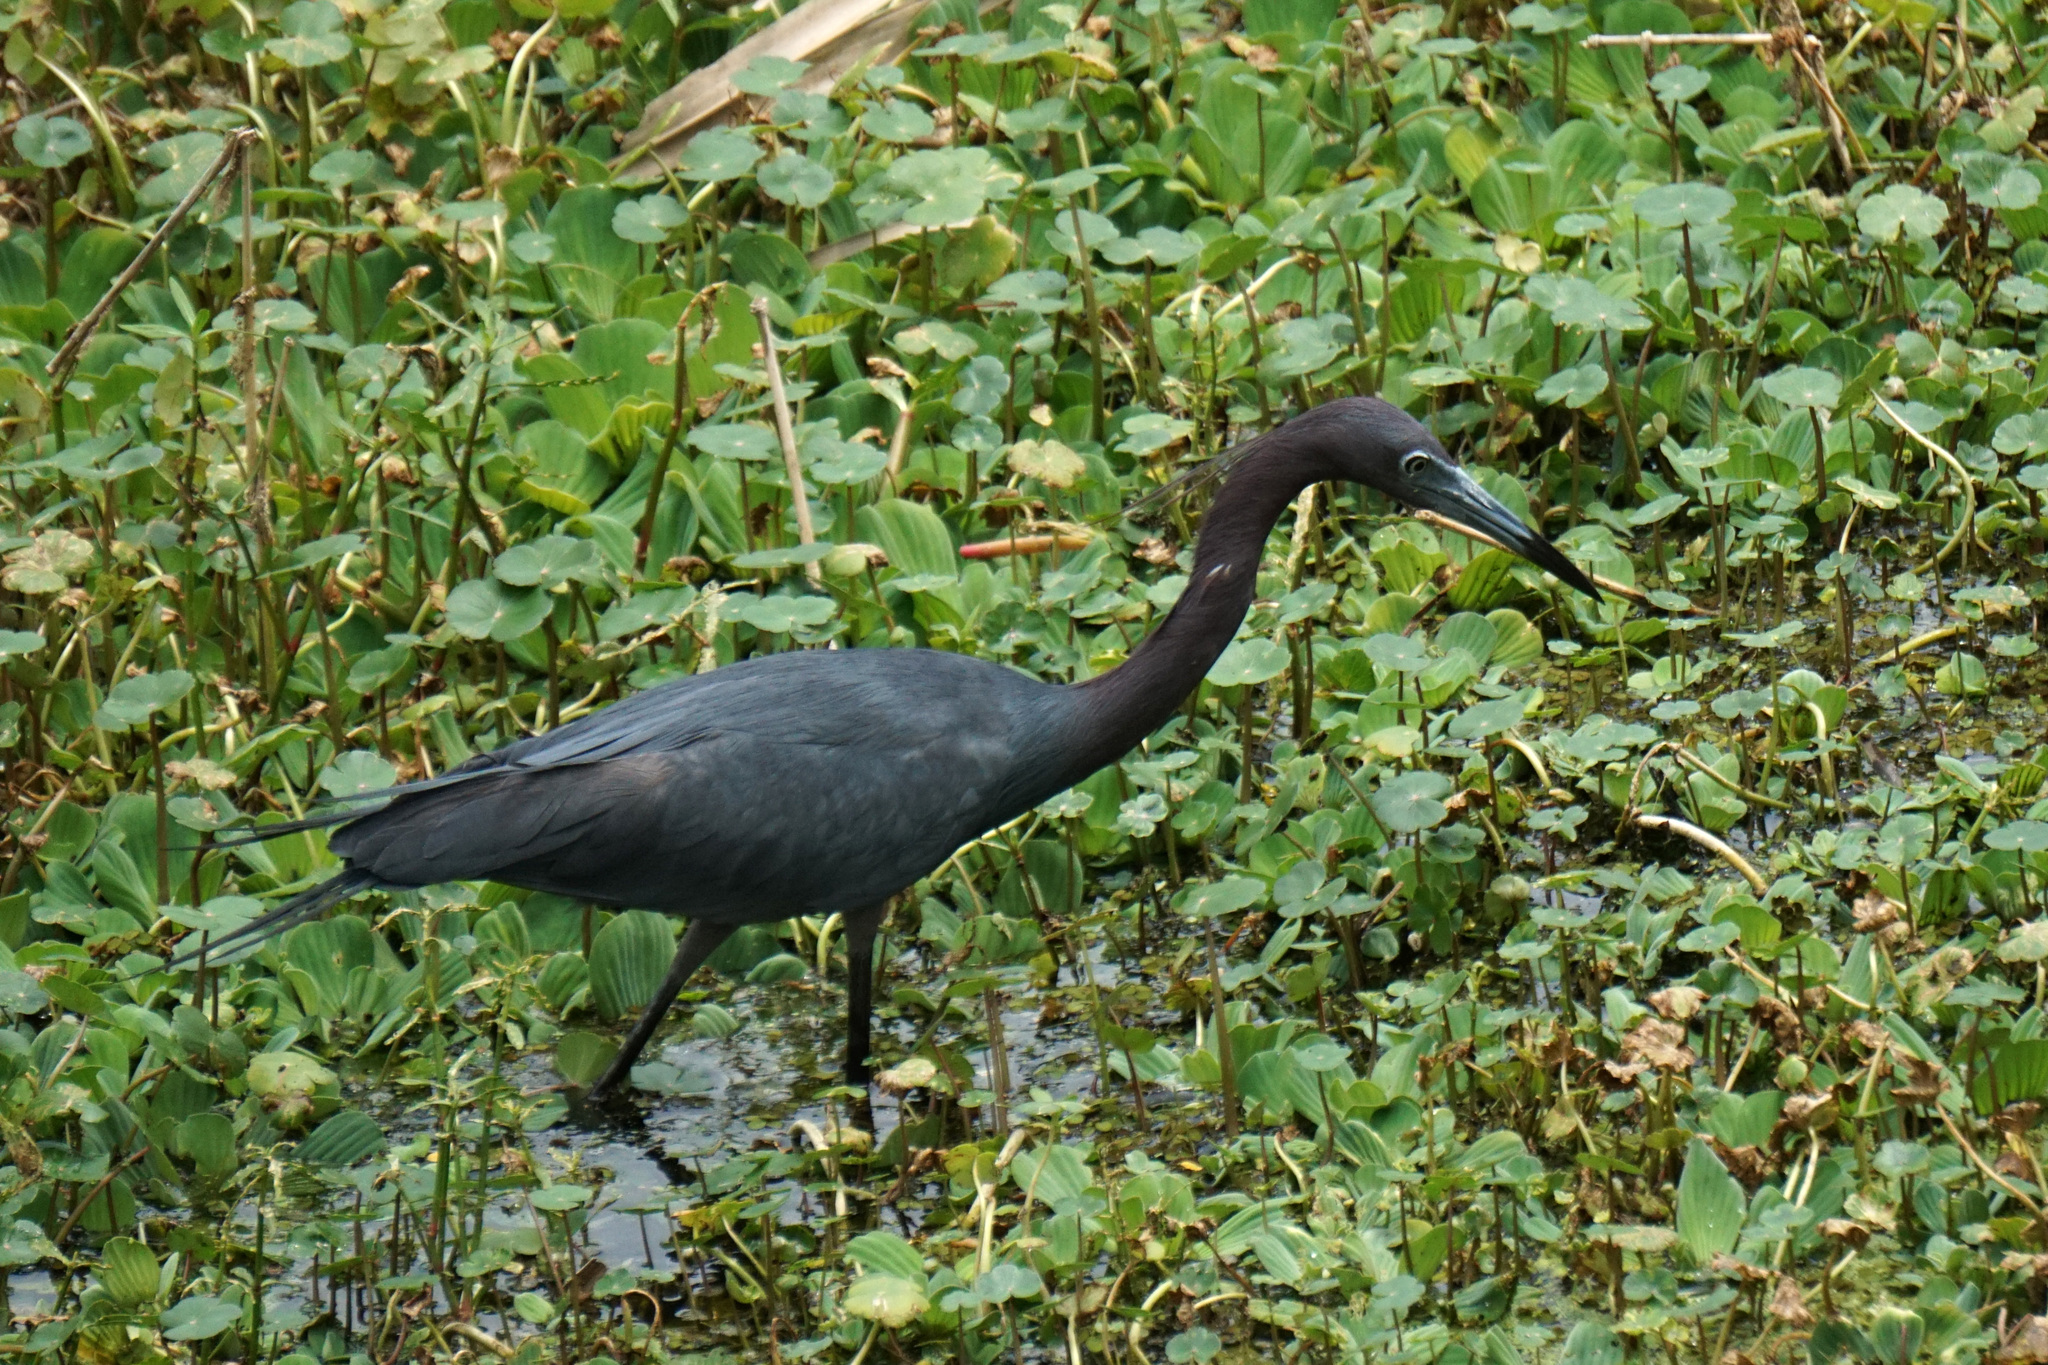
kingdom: Animalia
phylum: Chordata
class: Aves
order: Pelecaniformes
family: Ardeidae
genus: Egretta
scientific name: Egretta caerulea
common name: Little blue heron
